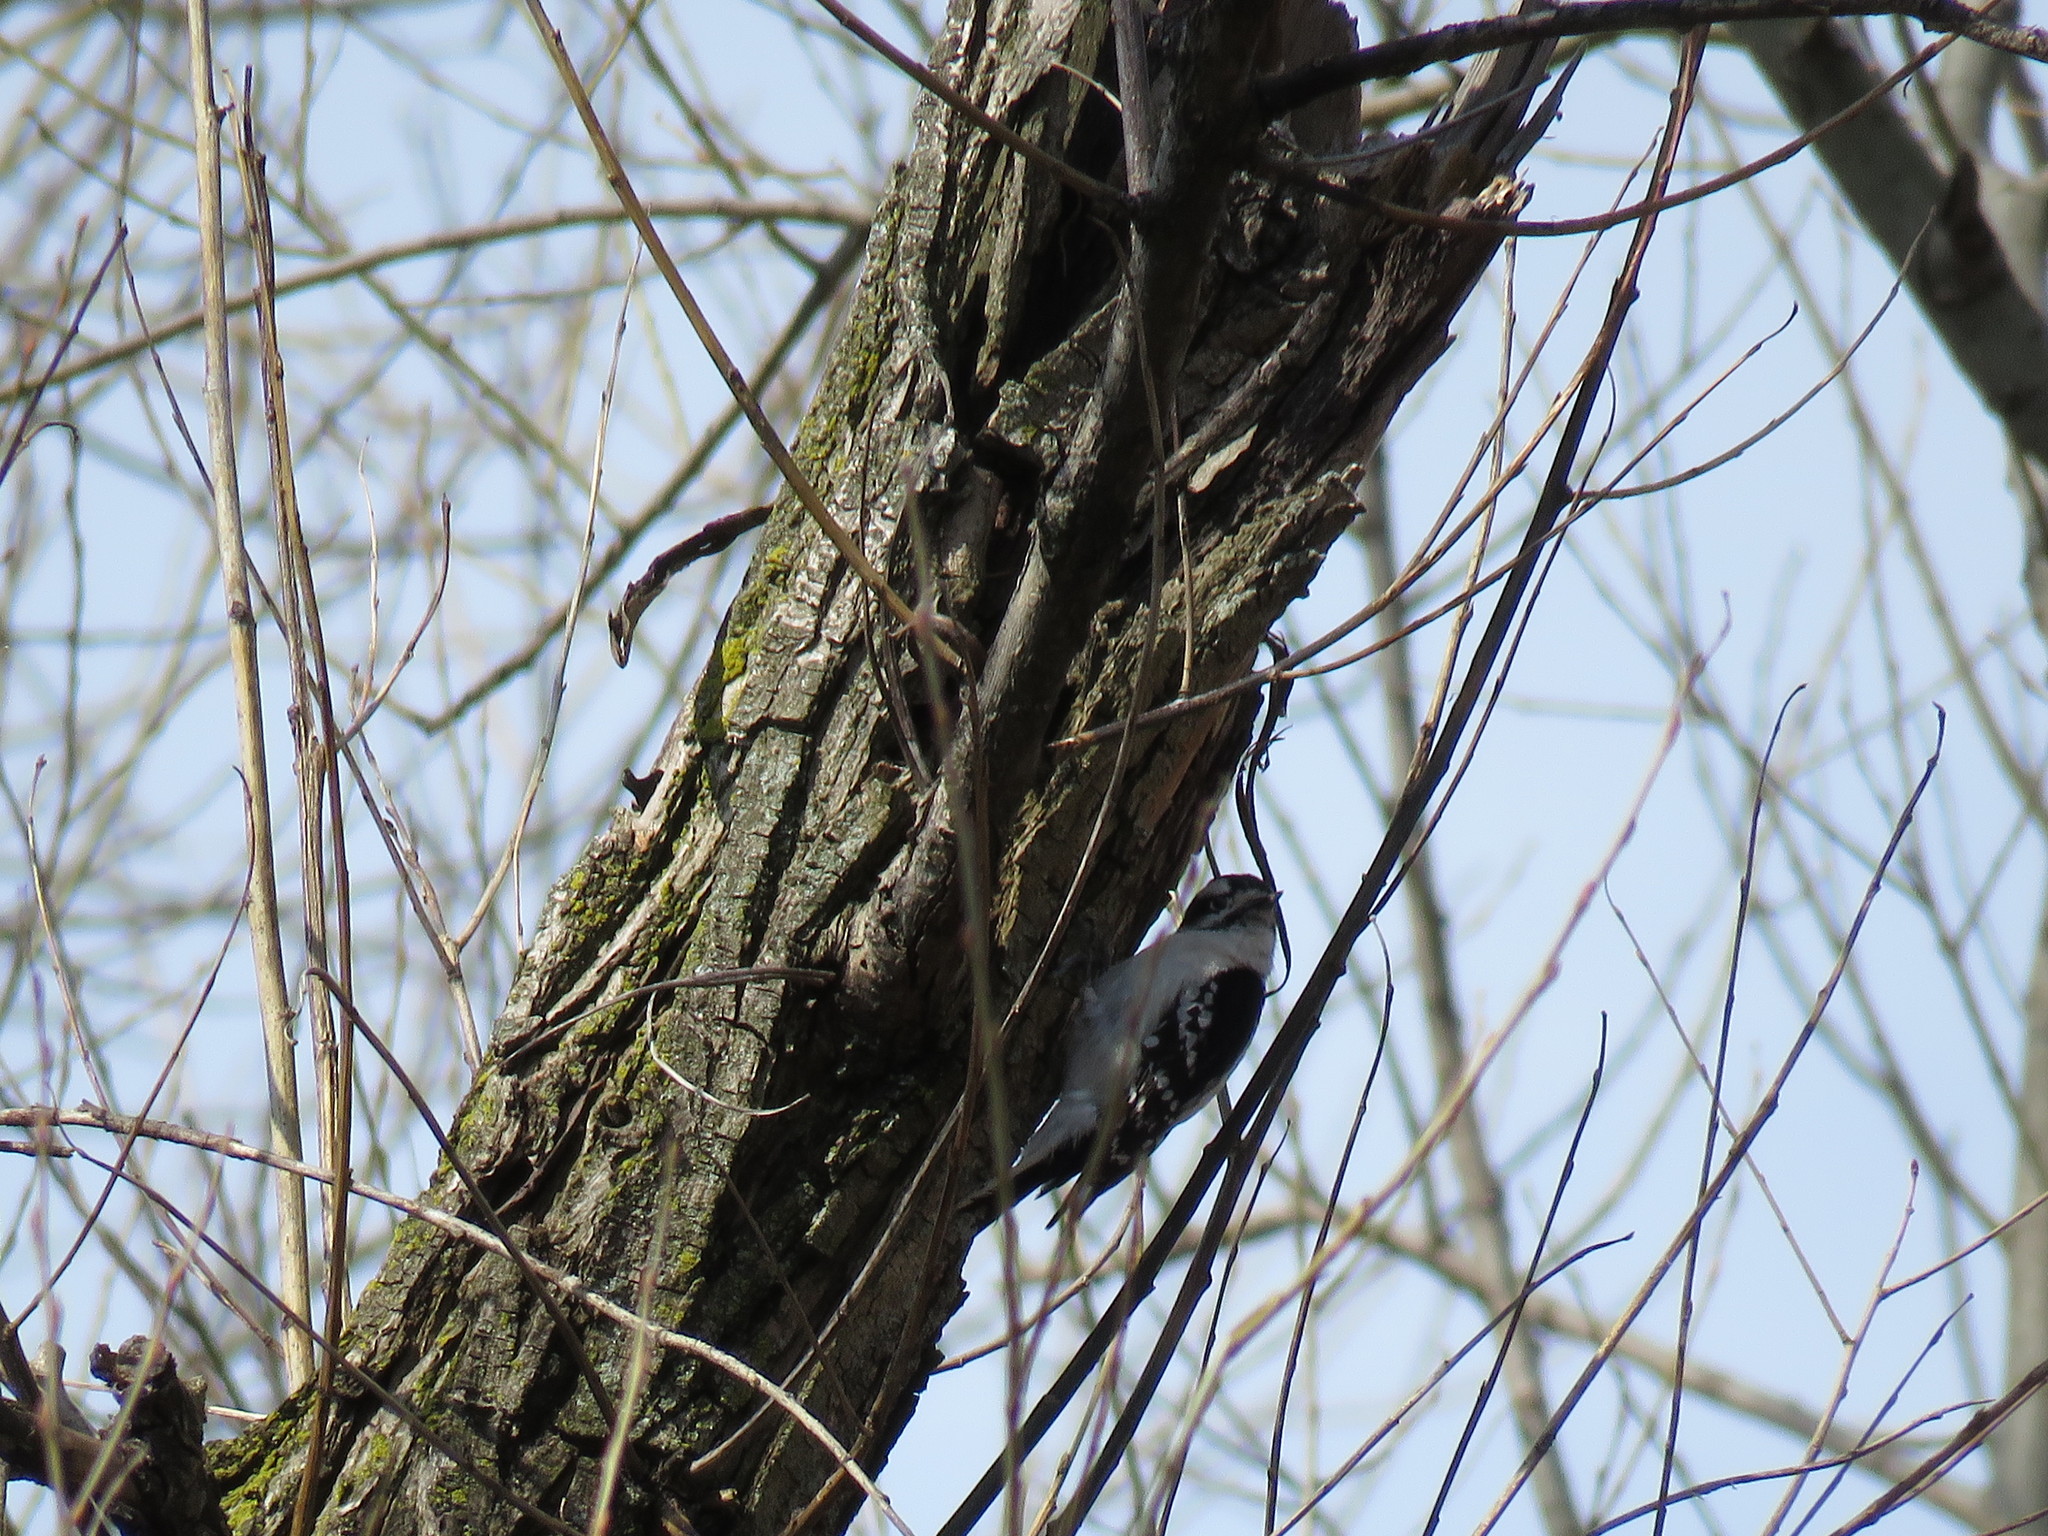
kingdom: Animalia
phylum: Chordata
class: Aves
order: Piciformes
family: Picidae
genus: Leuconotopicus
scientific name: Leuconotopicus villosus
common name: Hairy woodpecker
